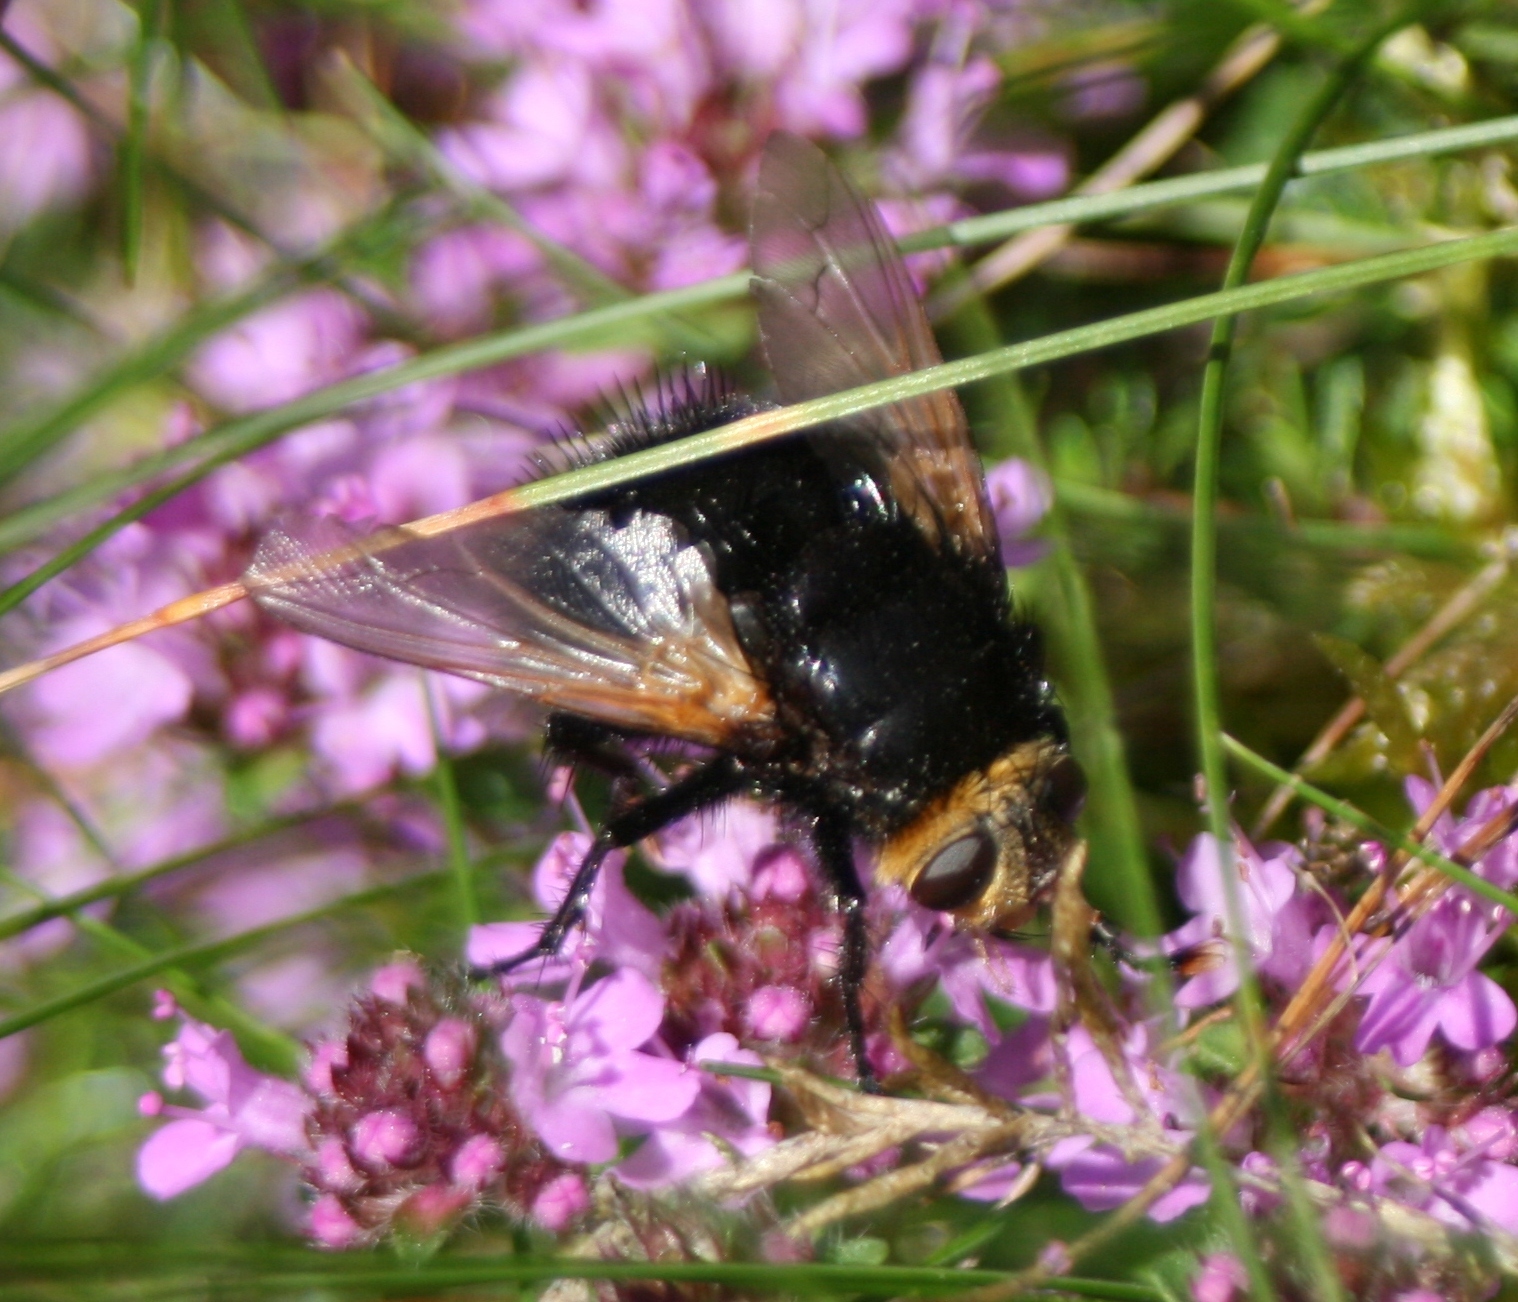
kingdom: Animalia
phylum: Arthropoda
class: Insecta
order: Diptera
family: Tachinidae
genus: Tachina
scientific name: Tachina grossa
